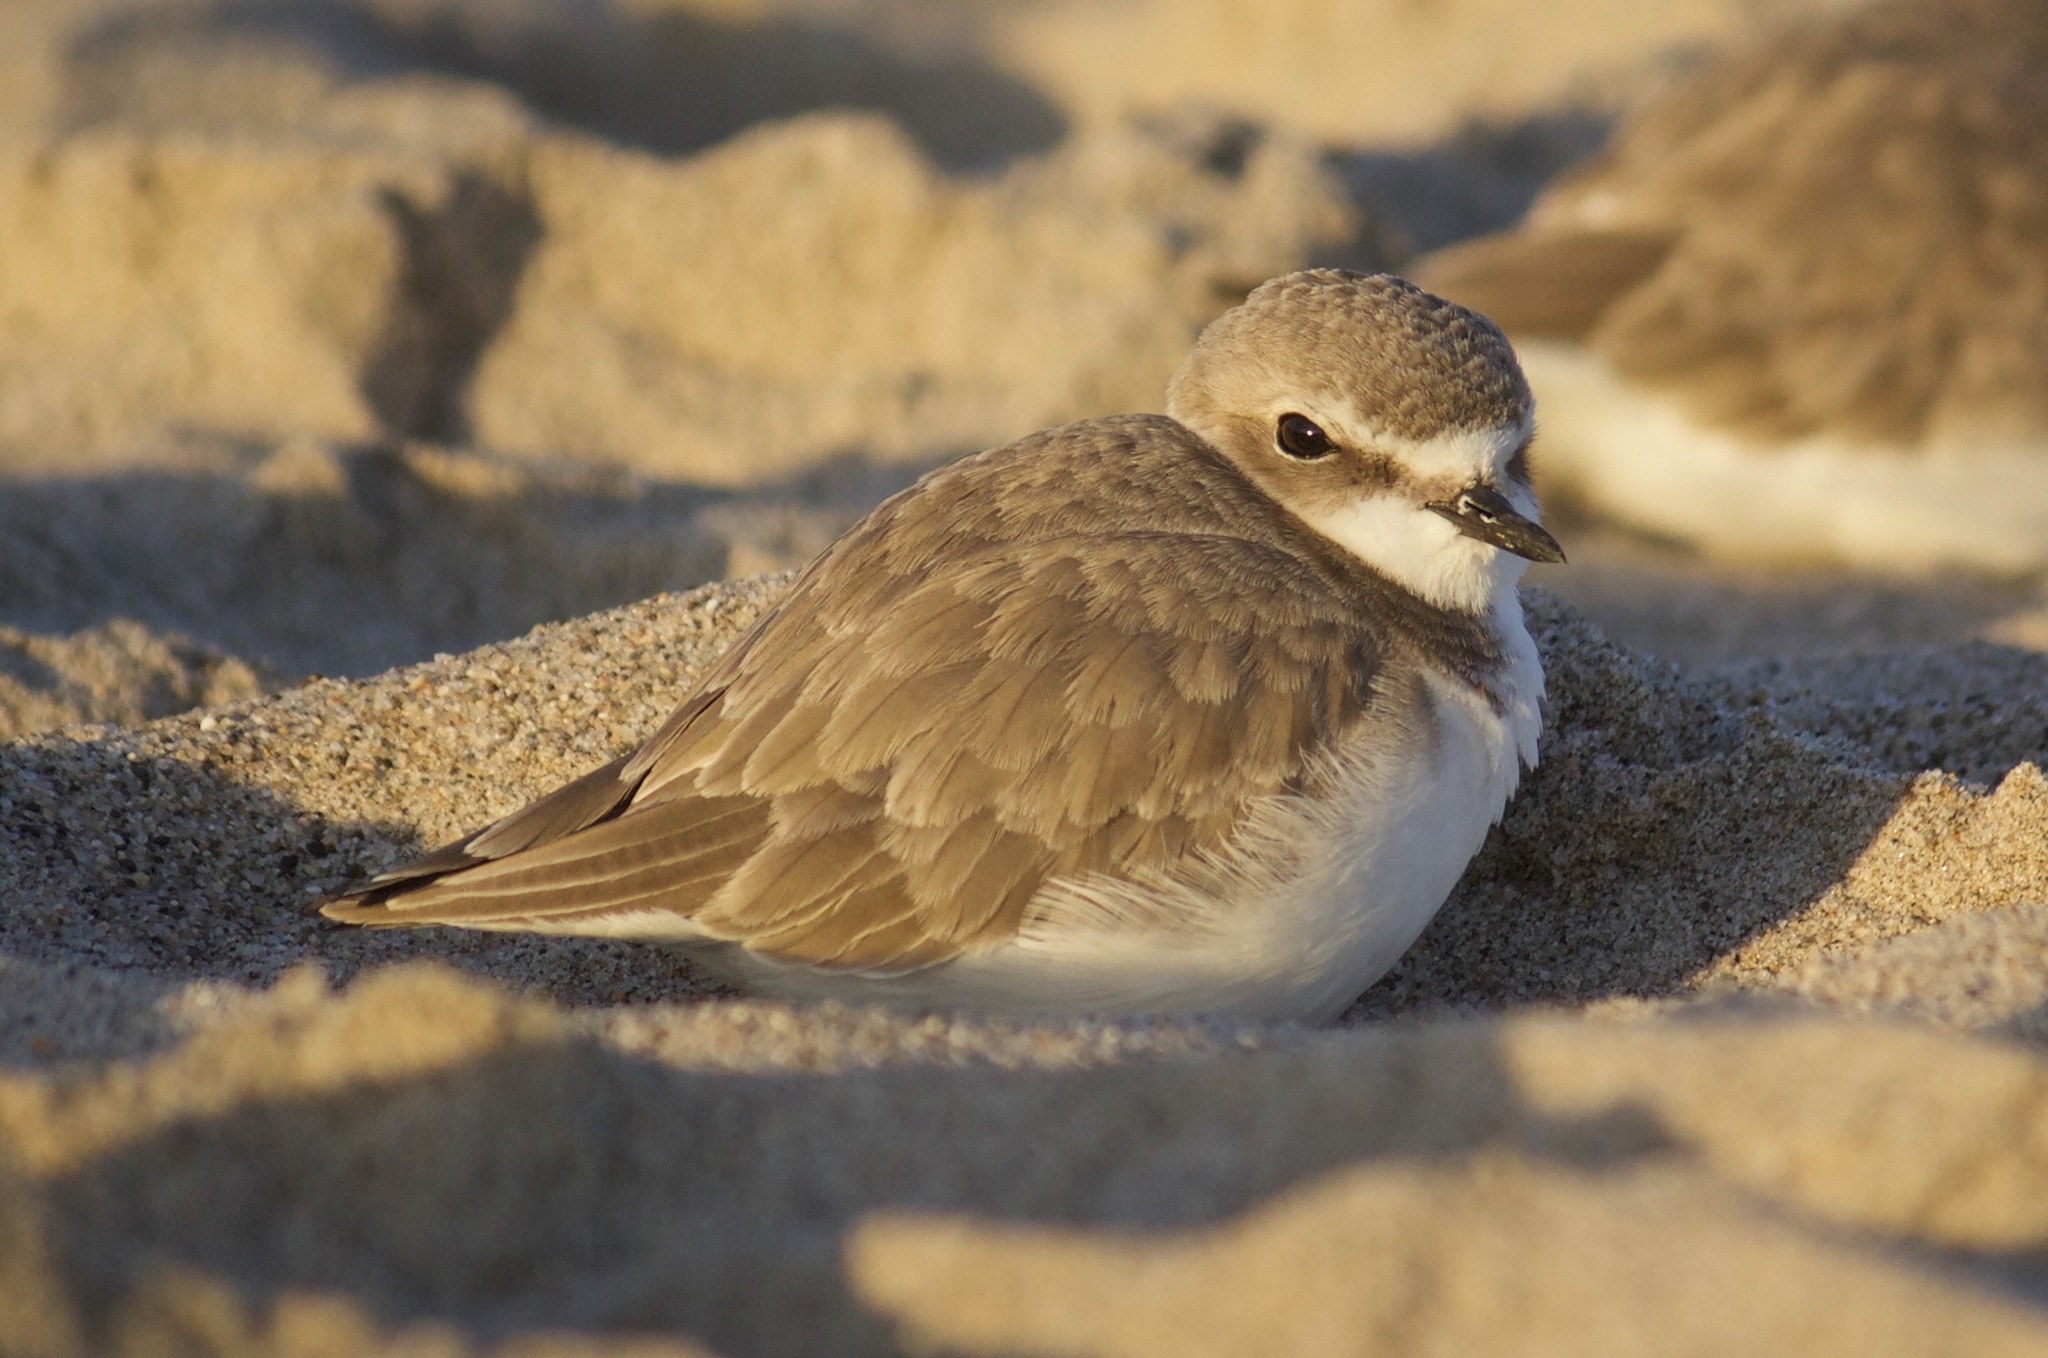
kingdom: Animalia
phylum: Chordata
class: Aves
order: Charadriiformes
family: Charadriidae
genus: Anarhynchus
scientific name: Anarhynchus
